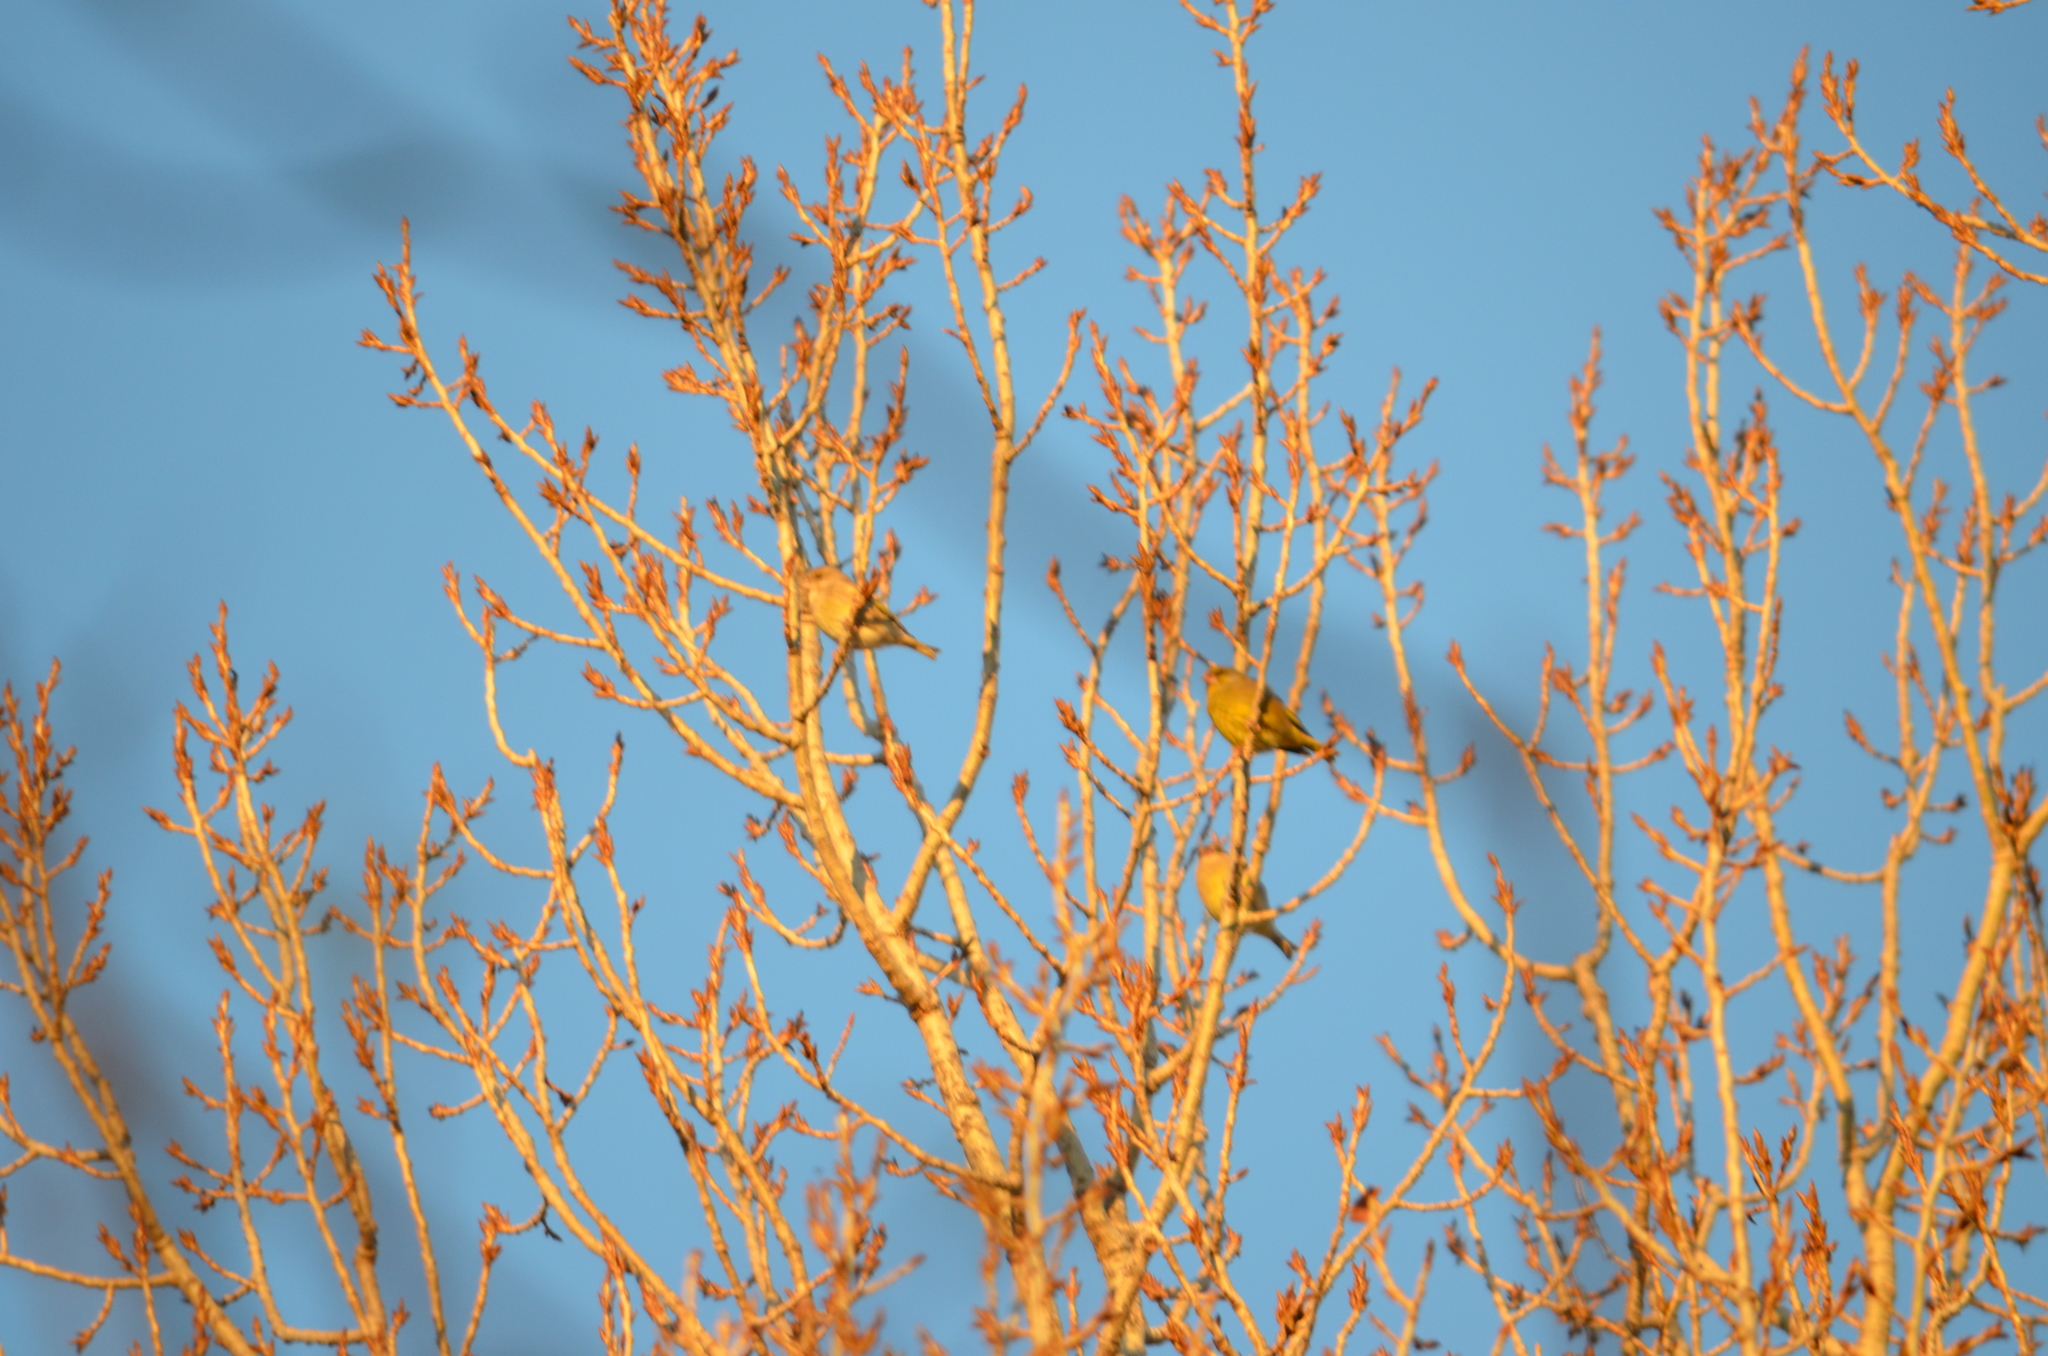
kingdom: Plantae
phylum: Tracheophyta
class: Liliopsida
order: Poales
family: Poaceae
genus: Chloris
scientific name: Chloris chloris
